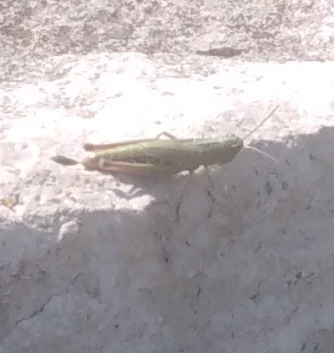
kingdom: Animalia
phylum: Arthropoda
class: Insecta
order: Orthoptera
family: Acrididae
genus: Pseudochorthippus
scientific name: Pseudochorthippus parallelus
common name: Meadow grasshopper
